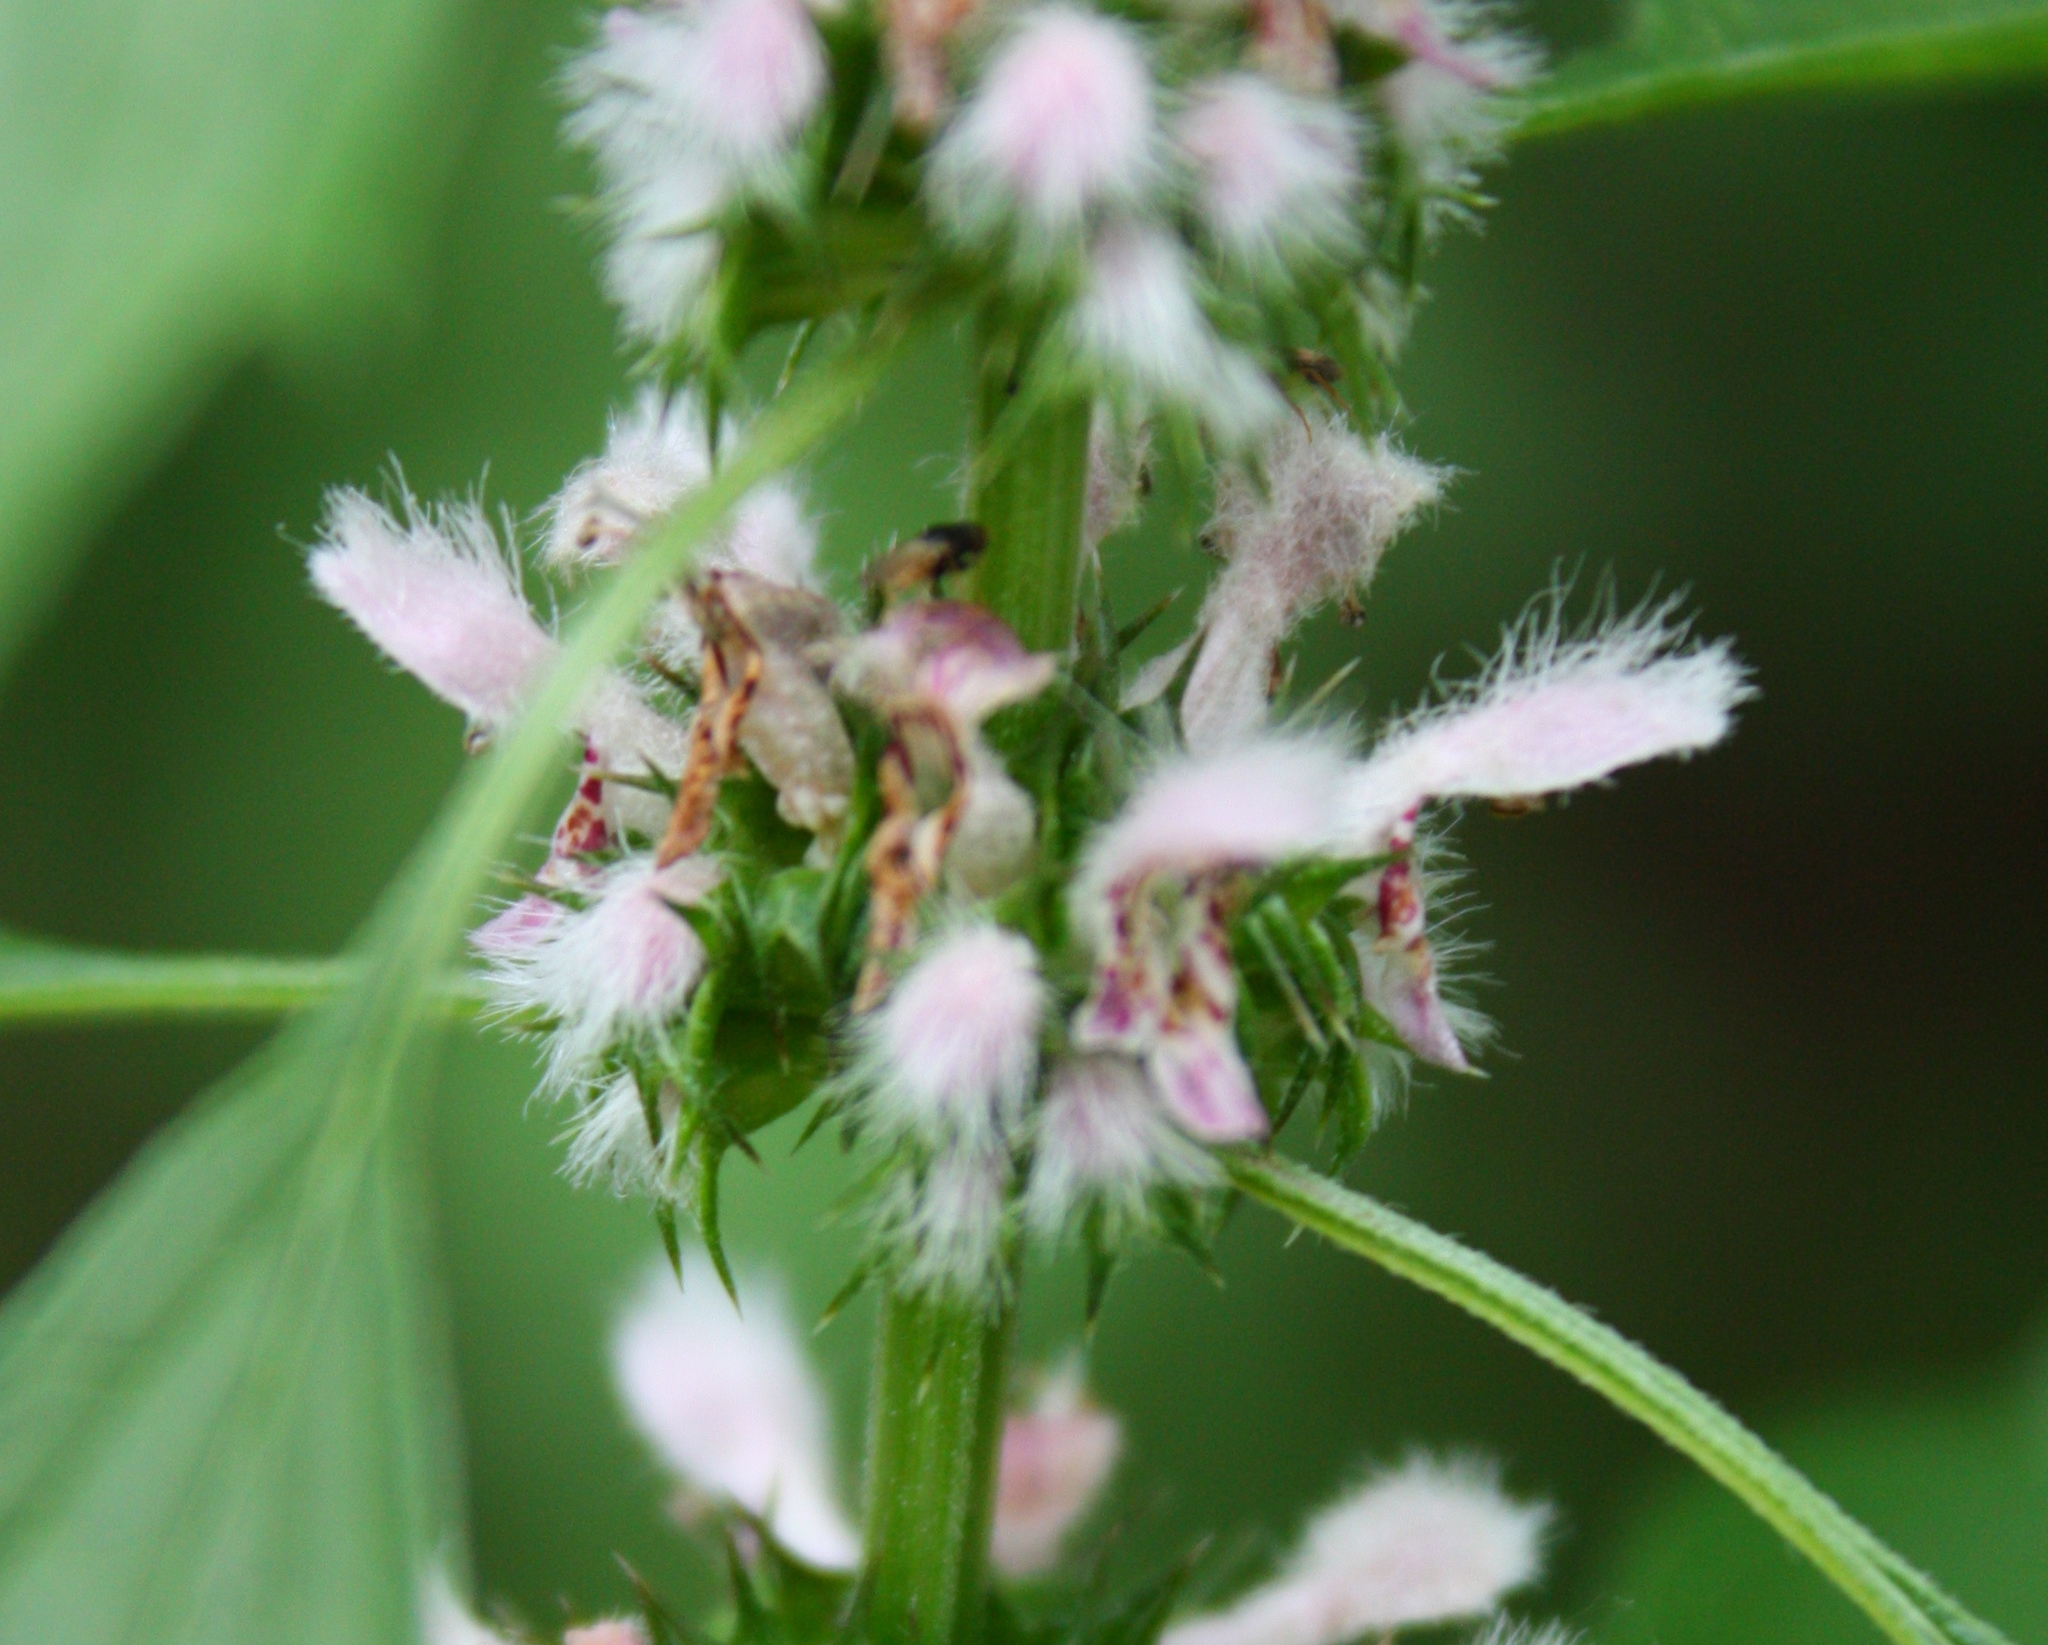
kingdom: Plantae
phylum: Tracheophyta
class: Magnoliopsida
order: Lamiales
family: Lamiaceae
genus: Leonurus
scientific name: Leonurus cardiaca
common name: Motherwort
